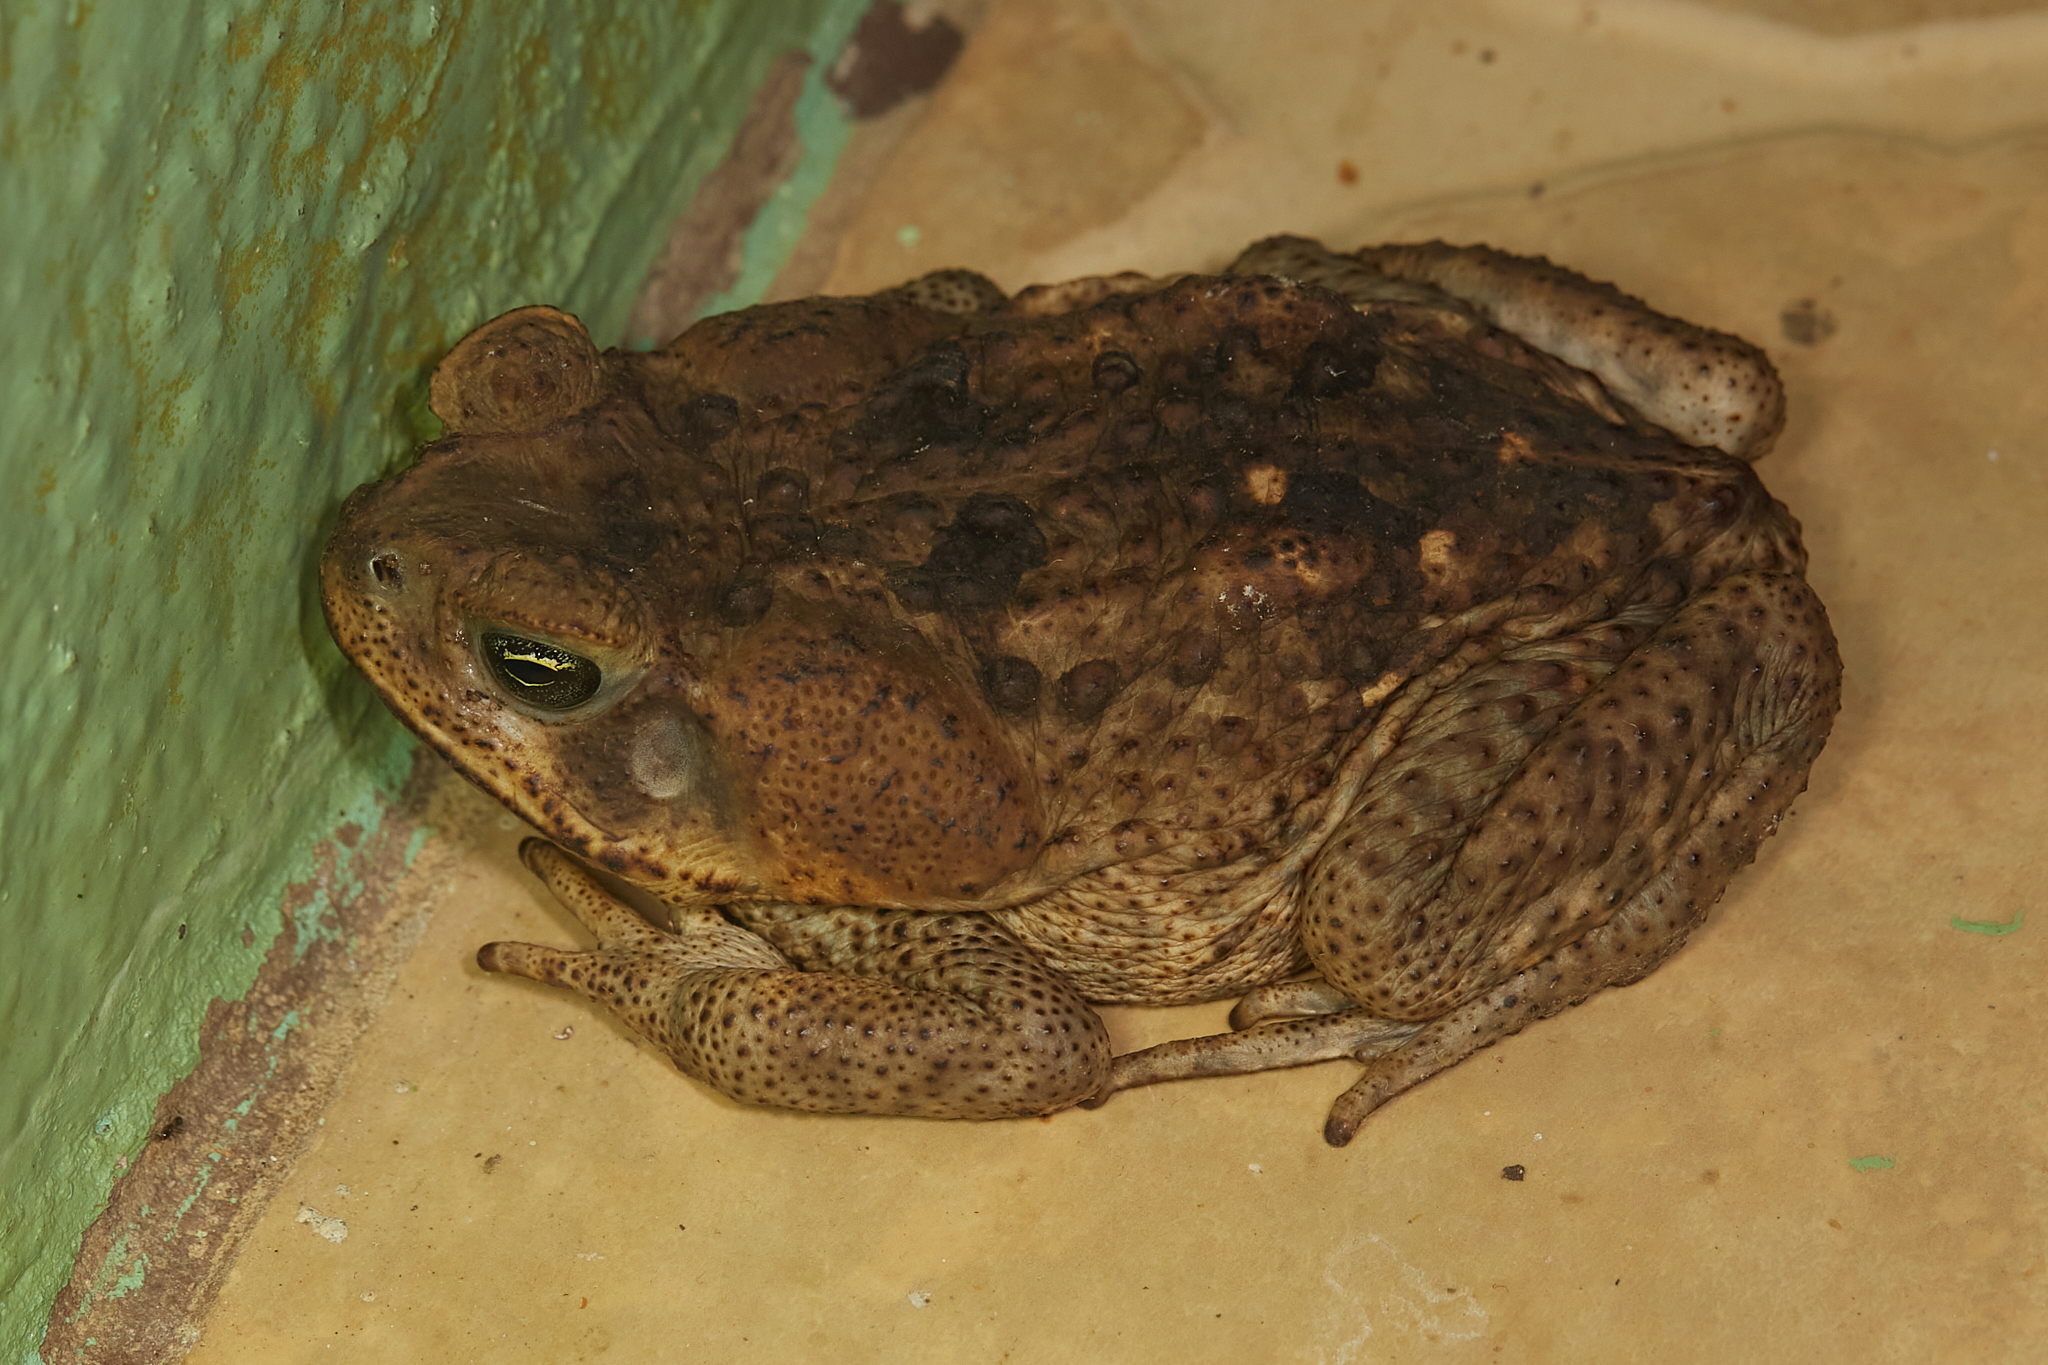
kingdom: Animalia
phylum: Chordata
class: Amphibia
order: Anura
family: Bufonidae
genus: Rhinella
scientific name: Rhinella horribilis
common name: Mesoamerican cane toad
